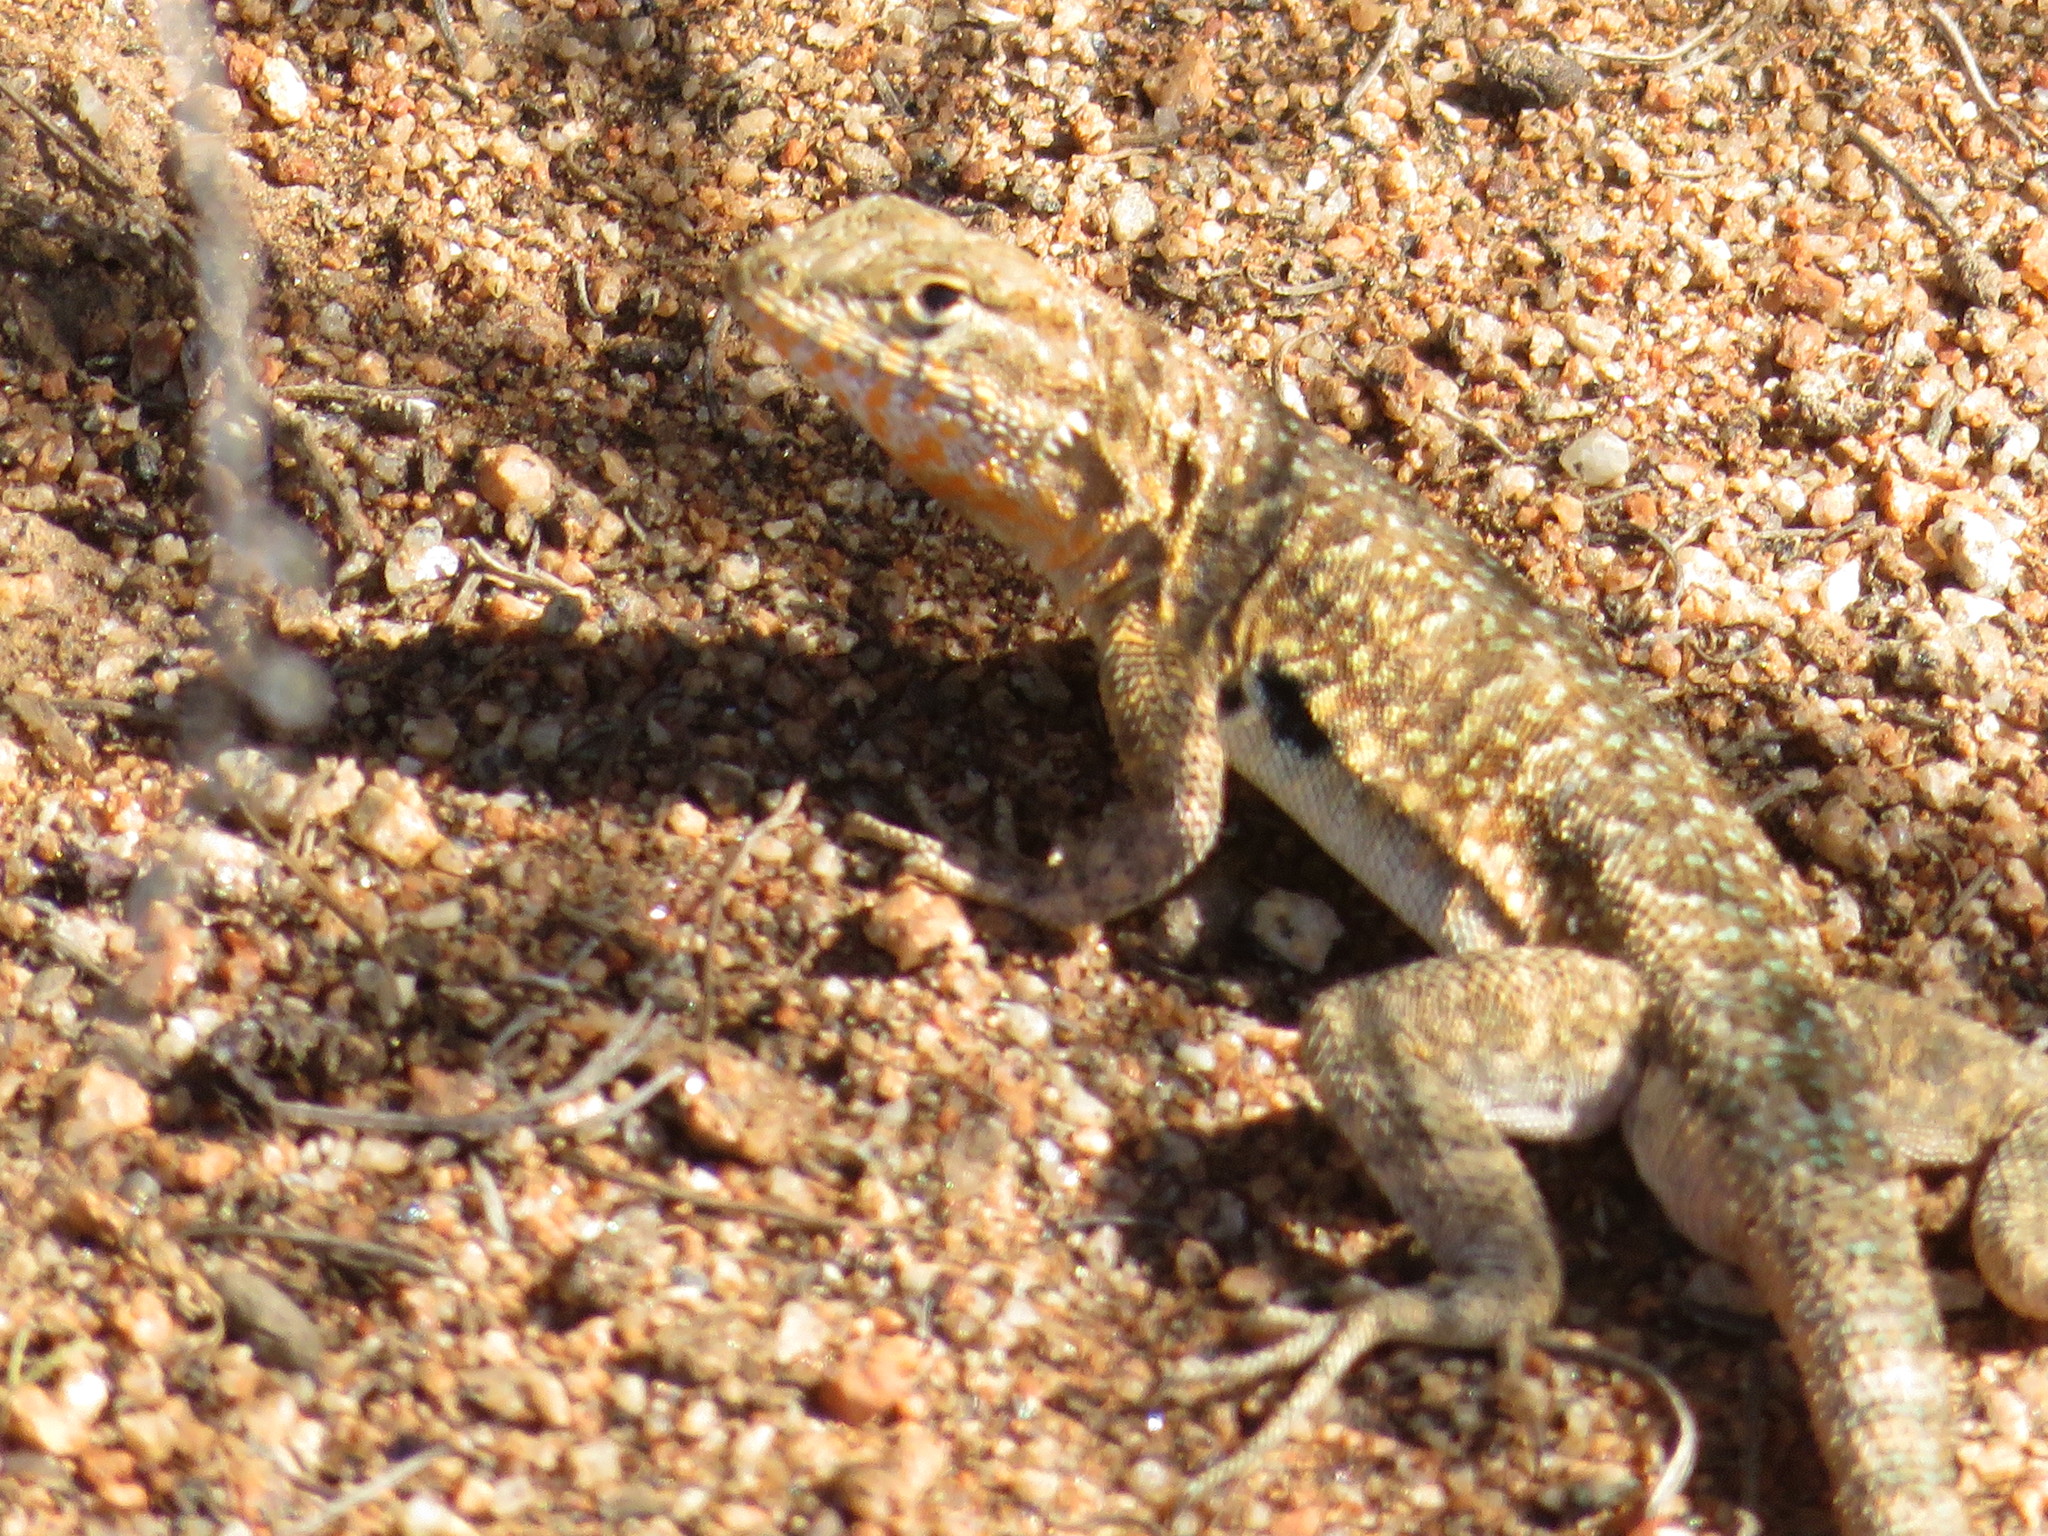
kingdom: Animalia
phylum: Chordata
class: Squamata
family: Phrynosomatidae
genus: Uta
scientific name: Uta stansburiana
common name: Side-blotched lizard
